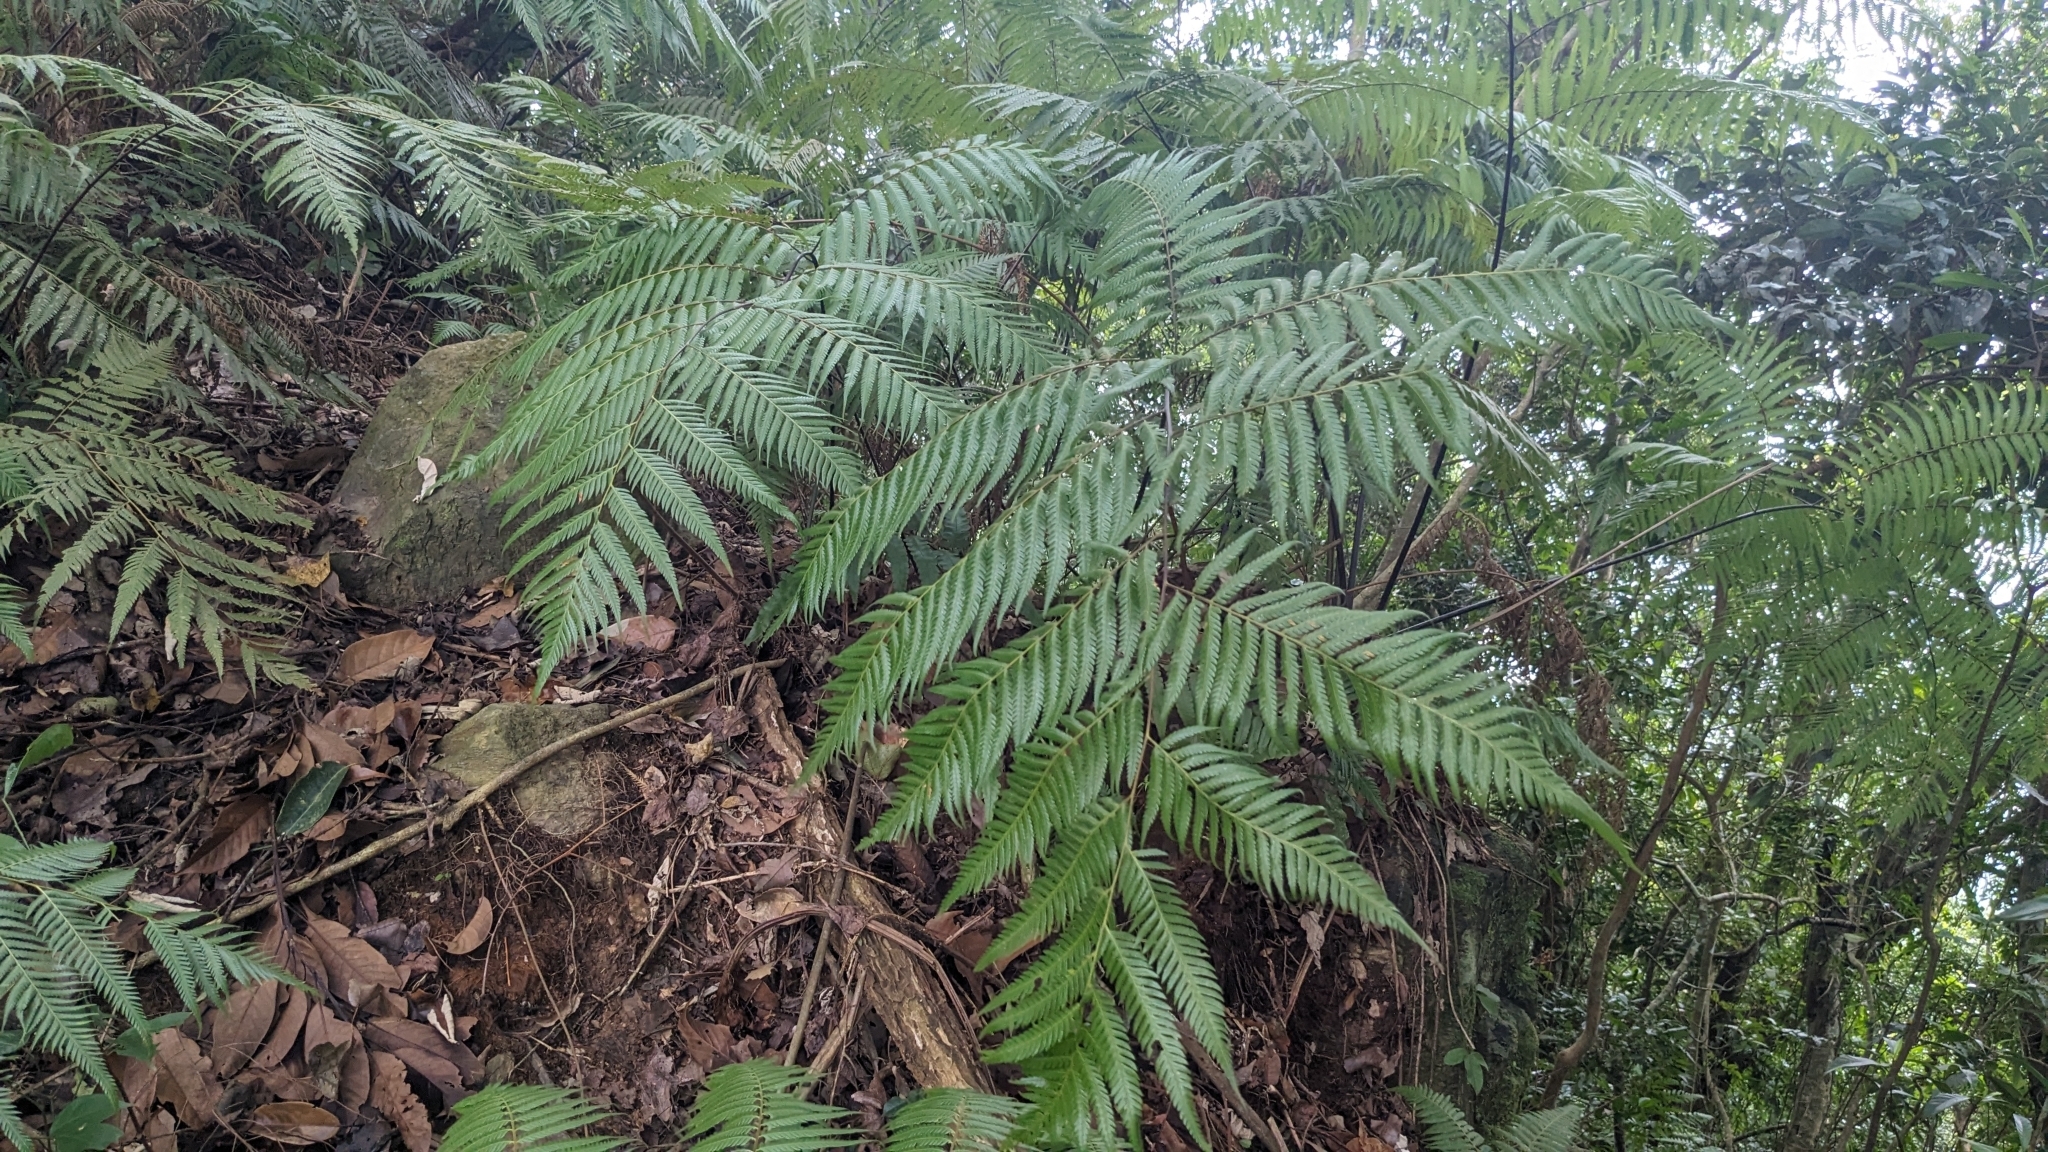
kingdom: Plantae
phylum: Tracheophyta
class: Polypodiopsida
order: Cyatheales
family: Cibotiaceae
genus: Cibotium
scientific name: Cibotium taiwanense
